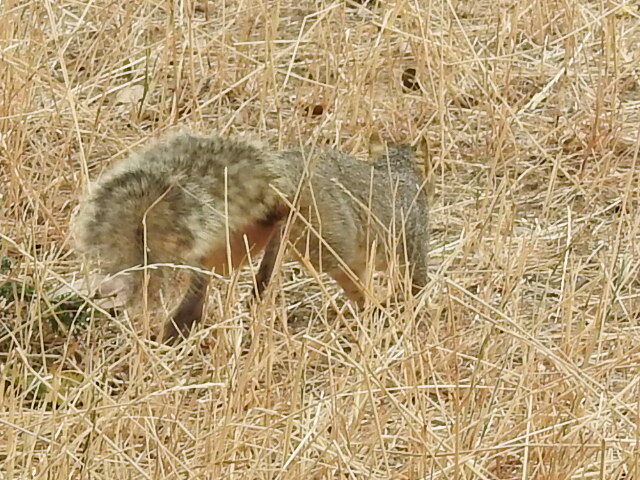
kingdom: Animalia
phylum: Chordata
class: Mammalia
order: Rodentia
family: Sciuridae
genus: Sciurus
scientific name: Sciurus niger
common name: Fox squirrel
